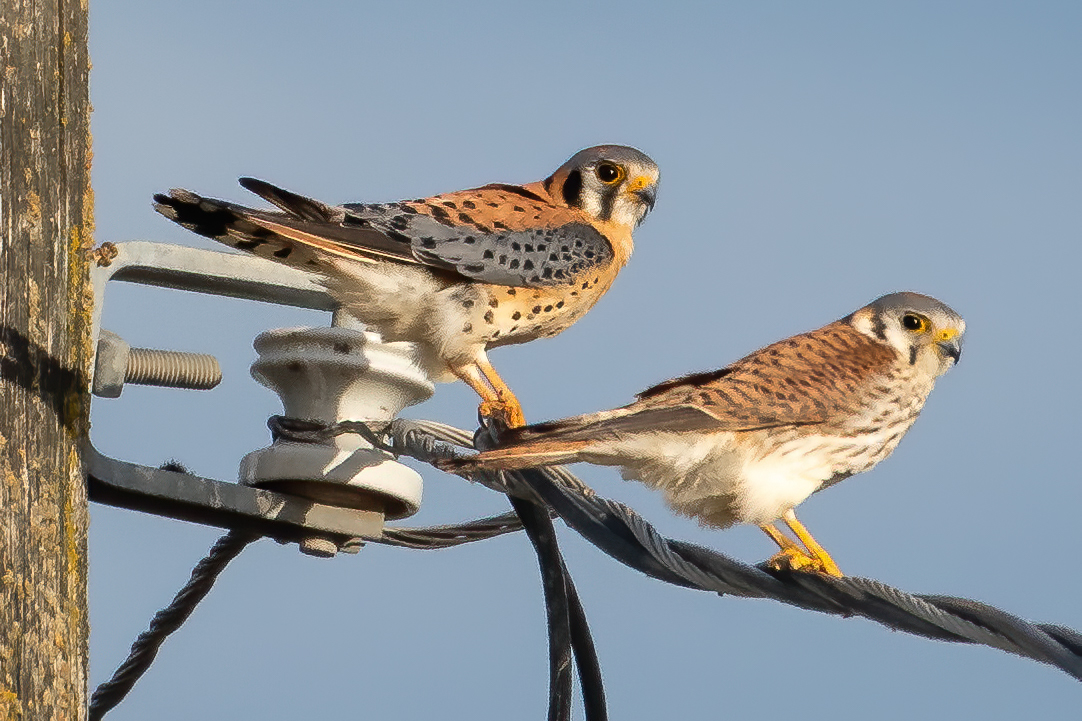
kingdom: Animalia
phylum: Chordata
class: Aves
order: Falconiformes
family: Falconidae
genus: Falco
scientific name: Falco sparverius
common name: American kestrel
